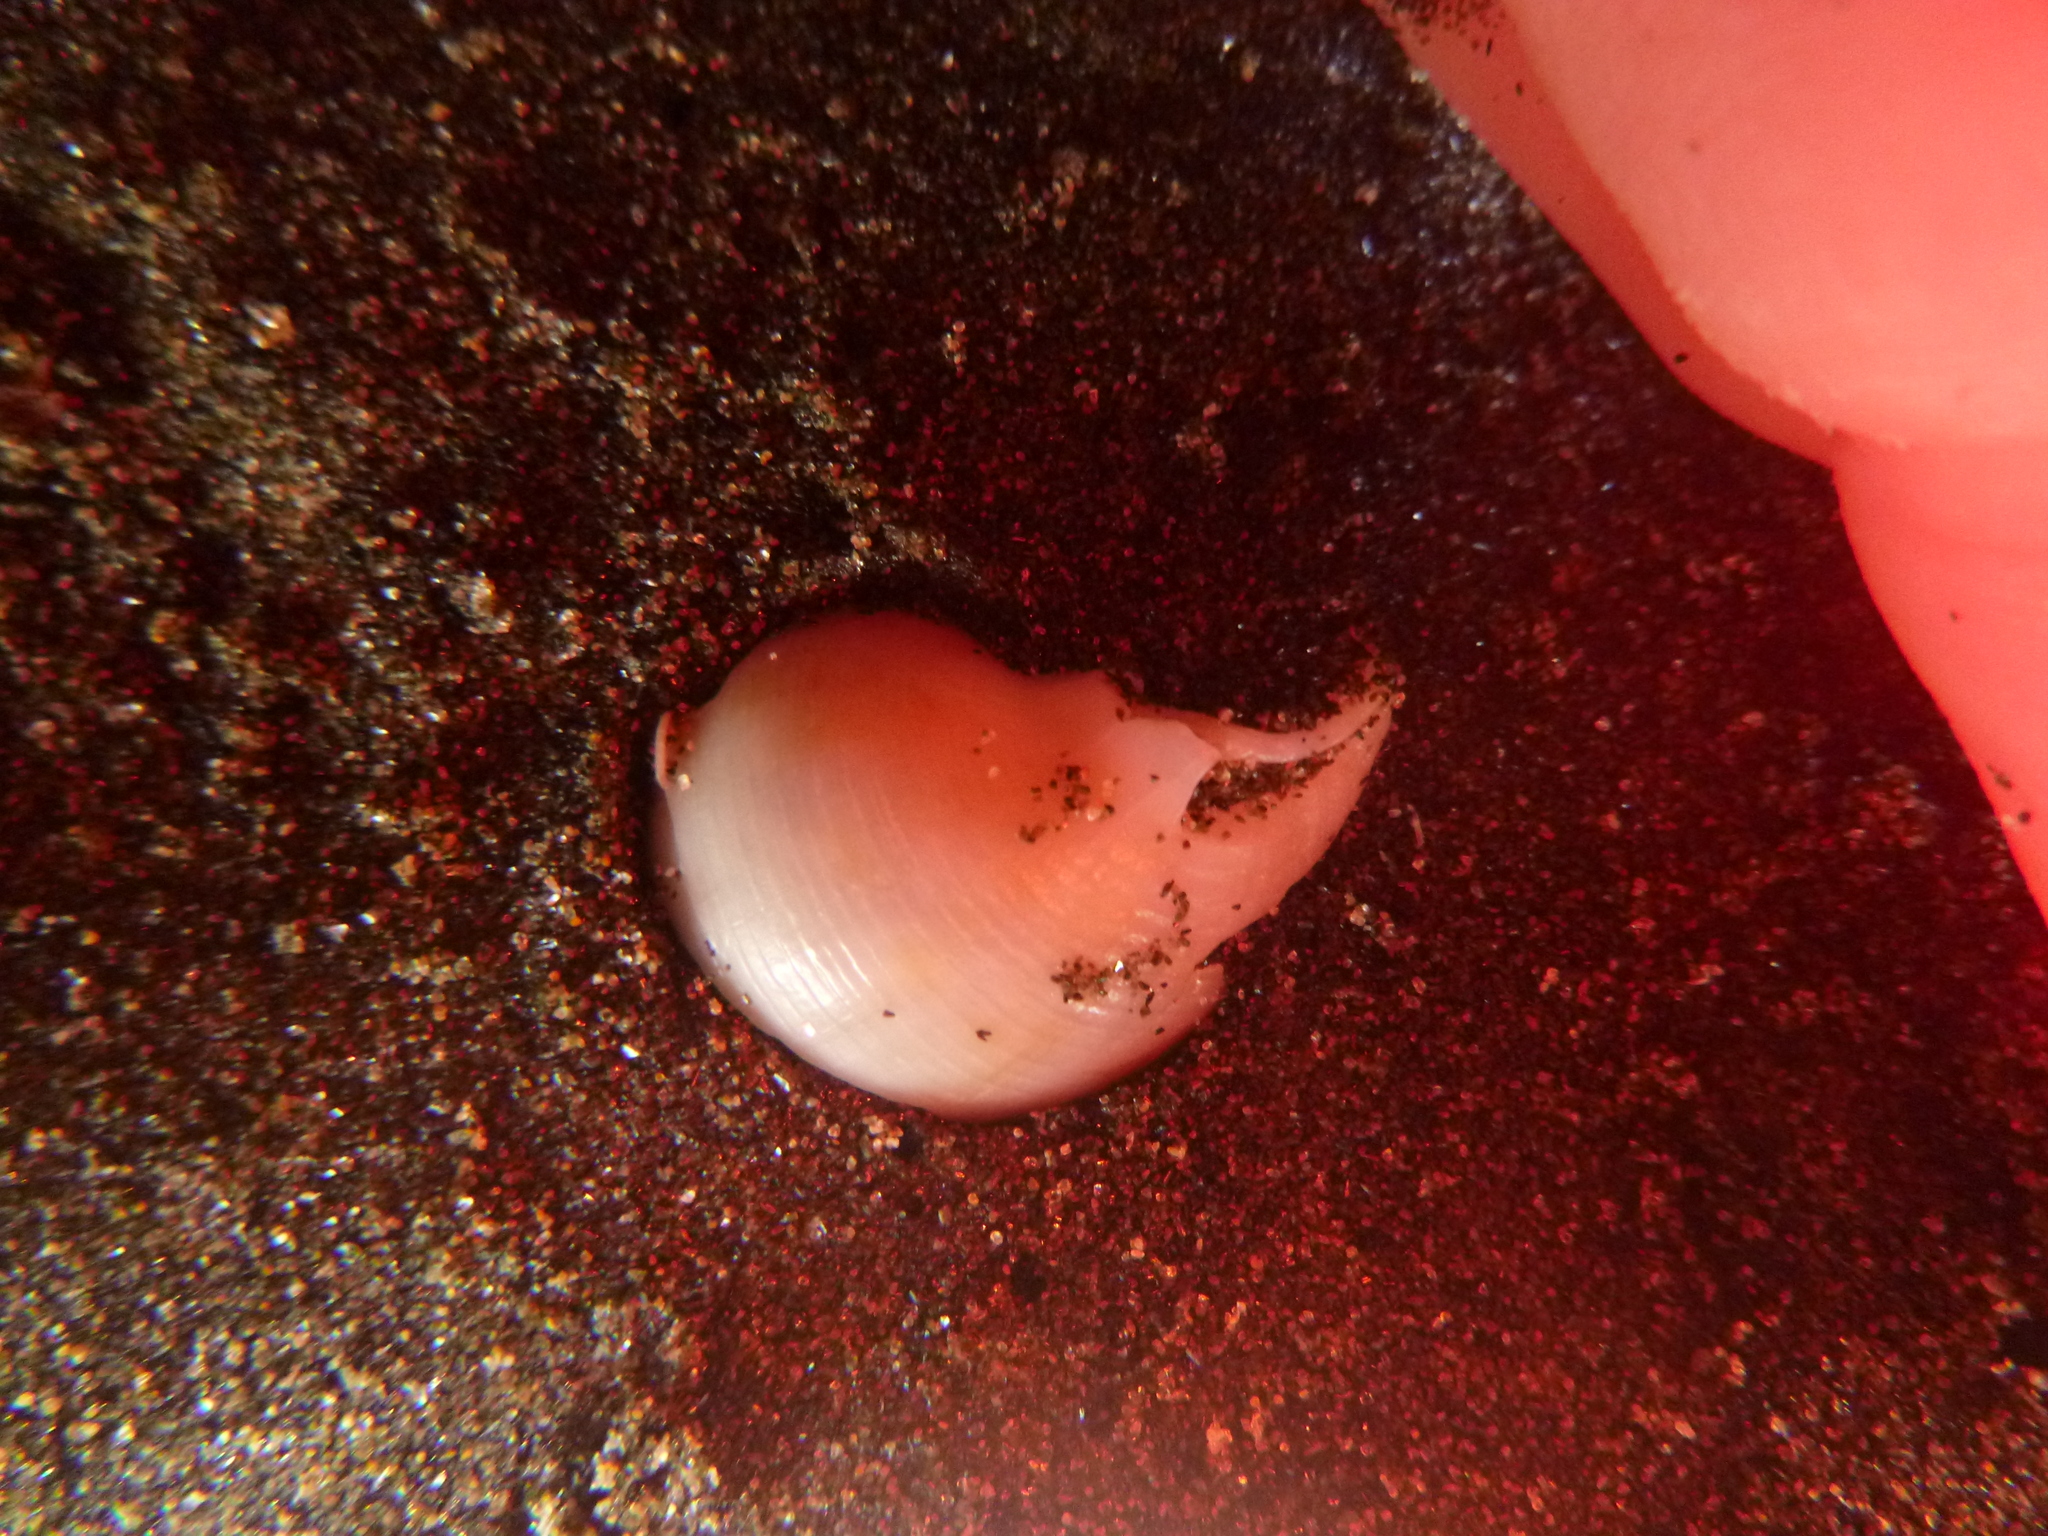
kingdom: Animalia
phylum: Mollusca
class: Gastropoda
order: Littorinimorpha
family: Cassidae
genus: Semicassis
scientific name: Semicassis pyrum
